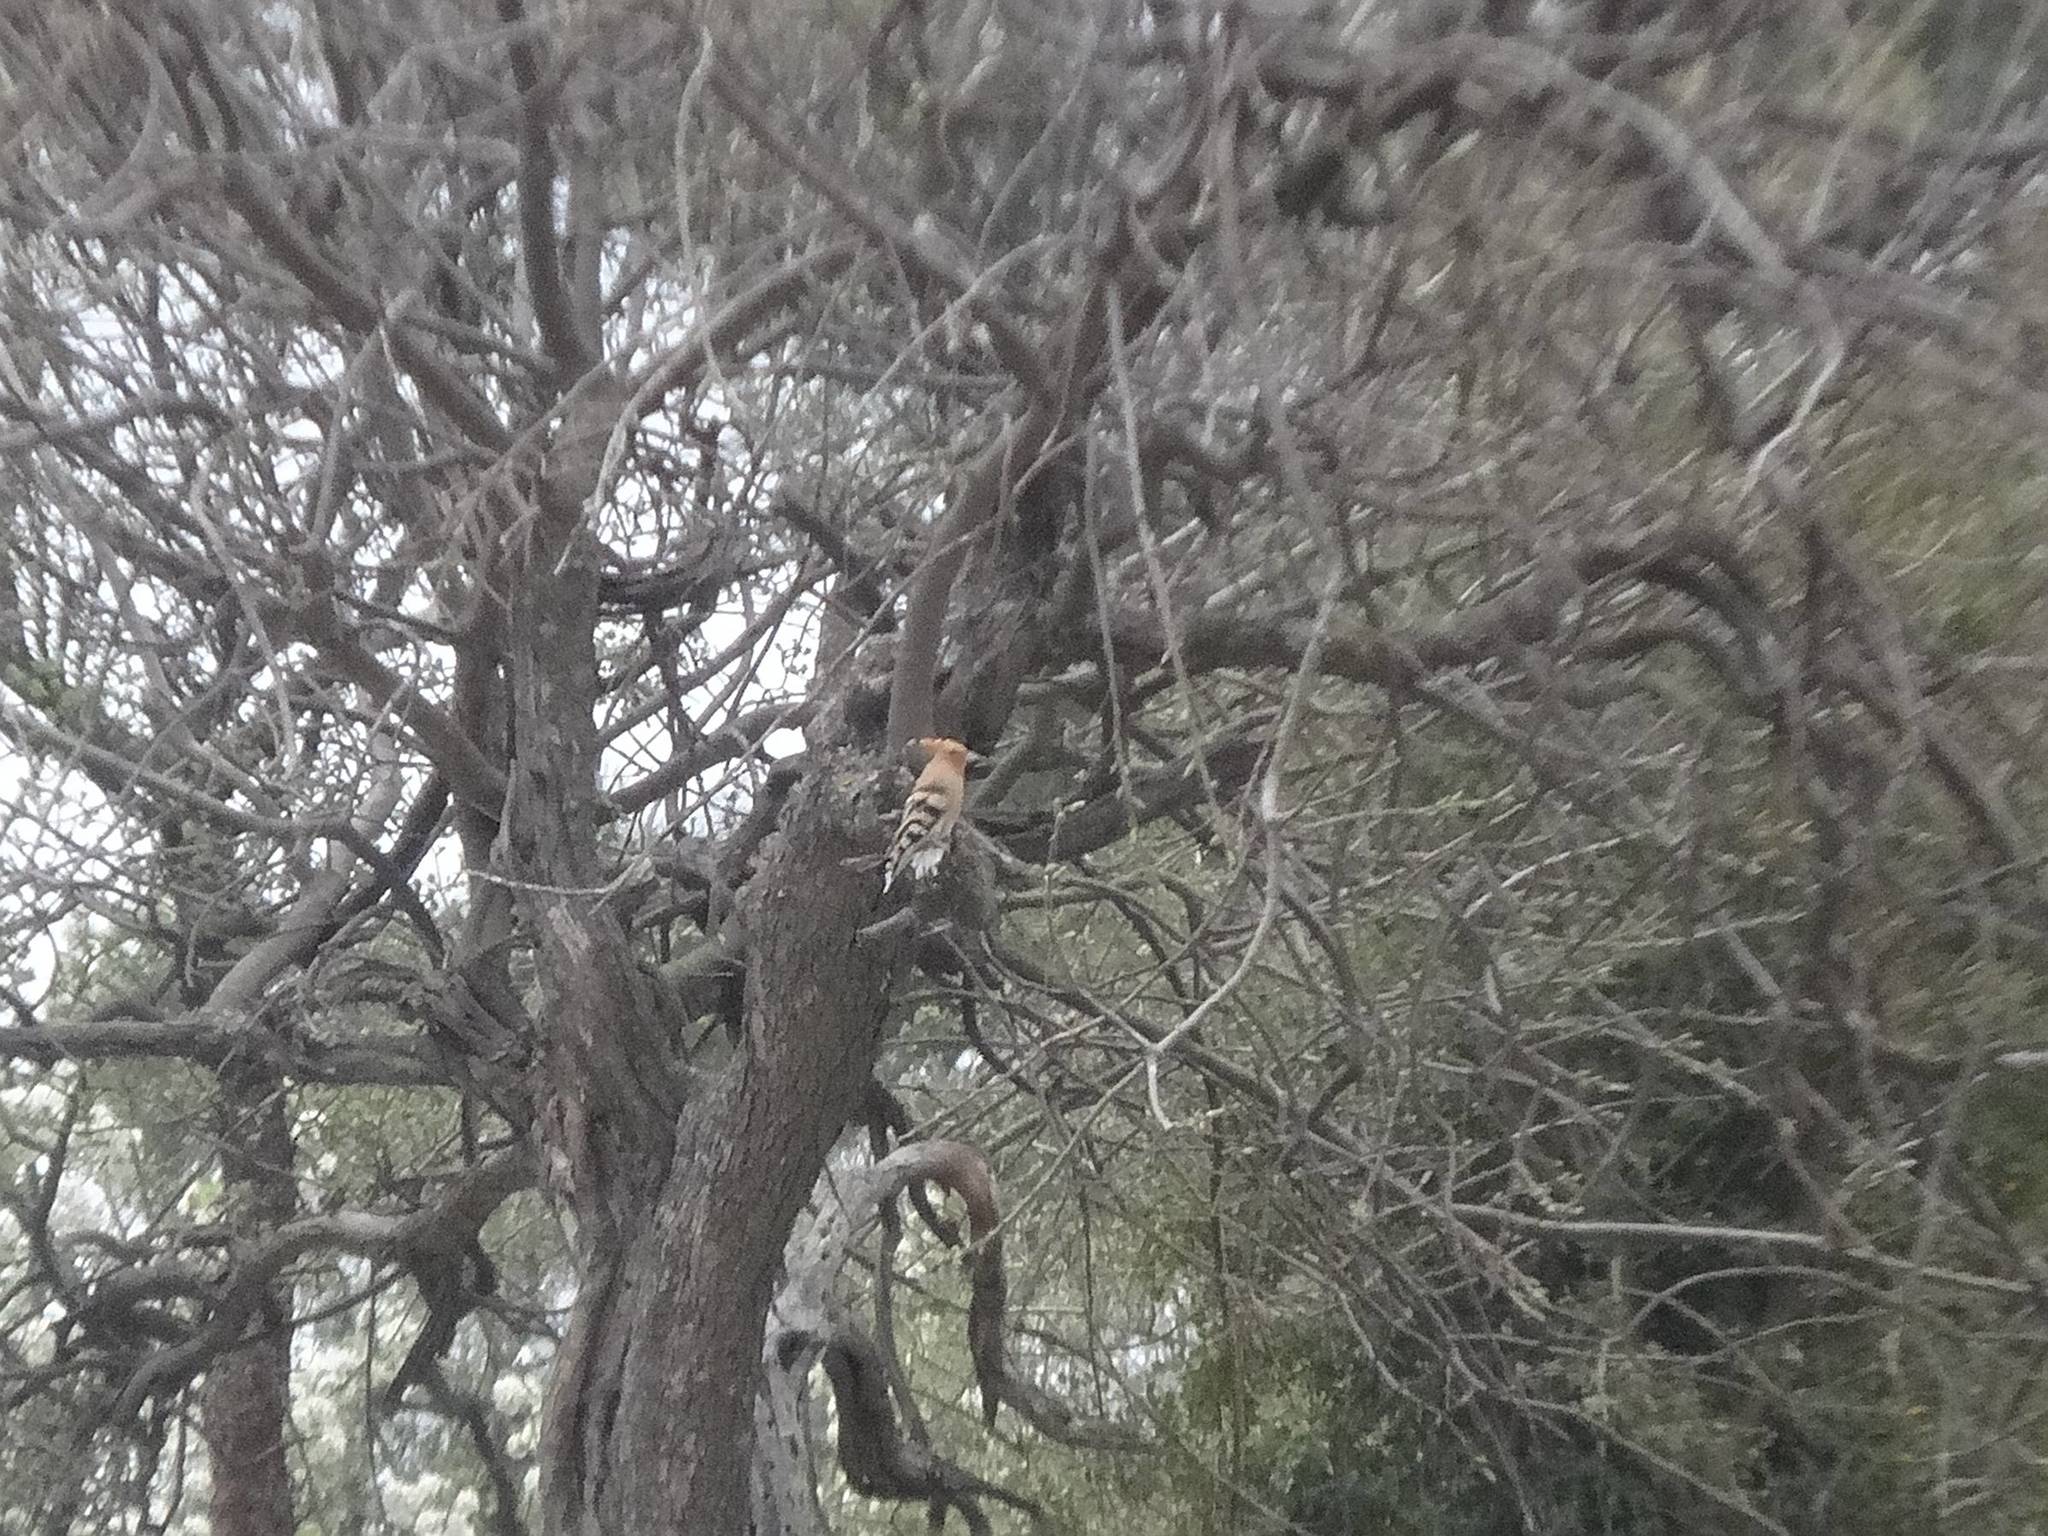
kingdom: Animalia
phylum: Chordata
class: Aves
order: Bucerotiformes
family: Upupidae
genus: Upupa
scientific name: Upupa epops
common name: Eurasian hoopoe
